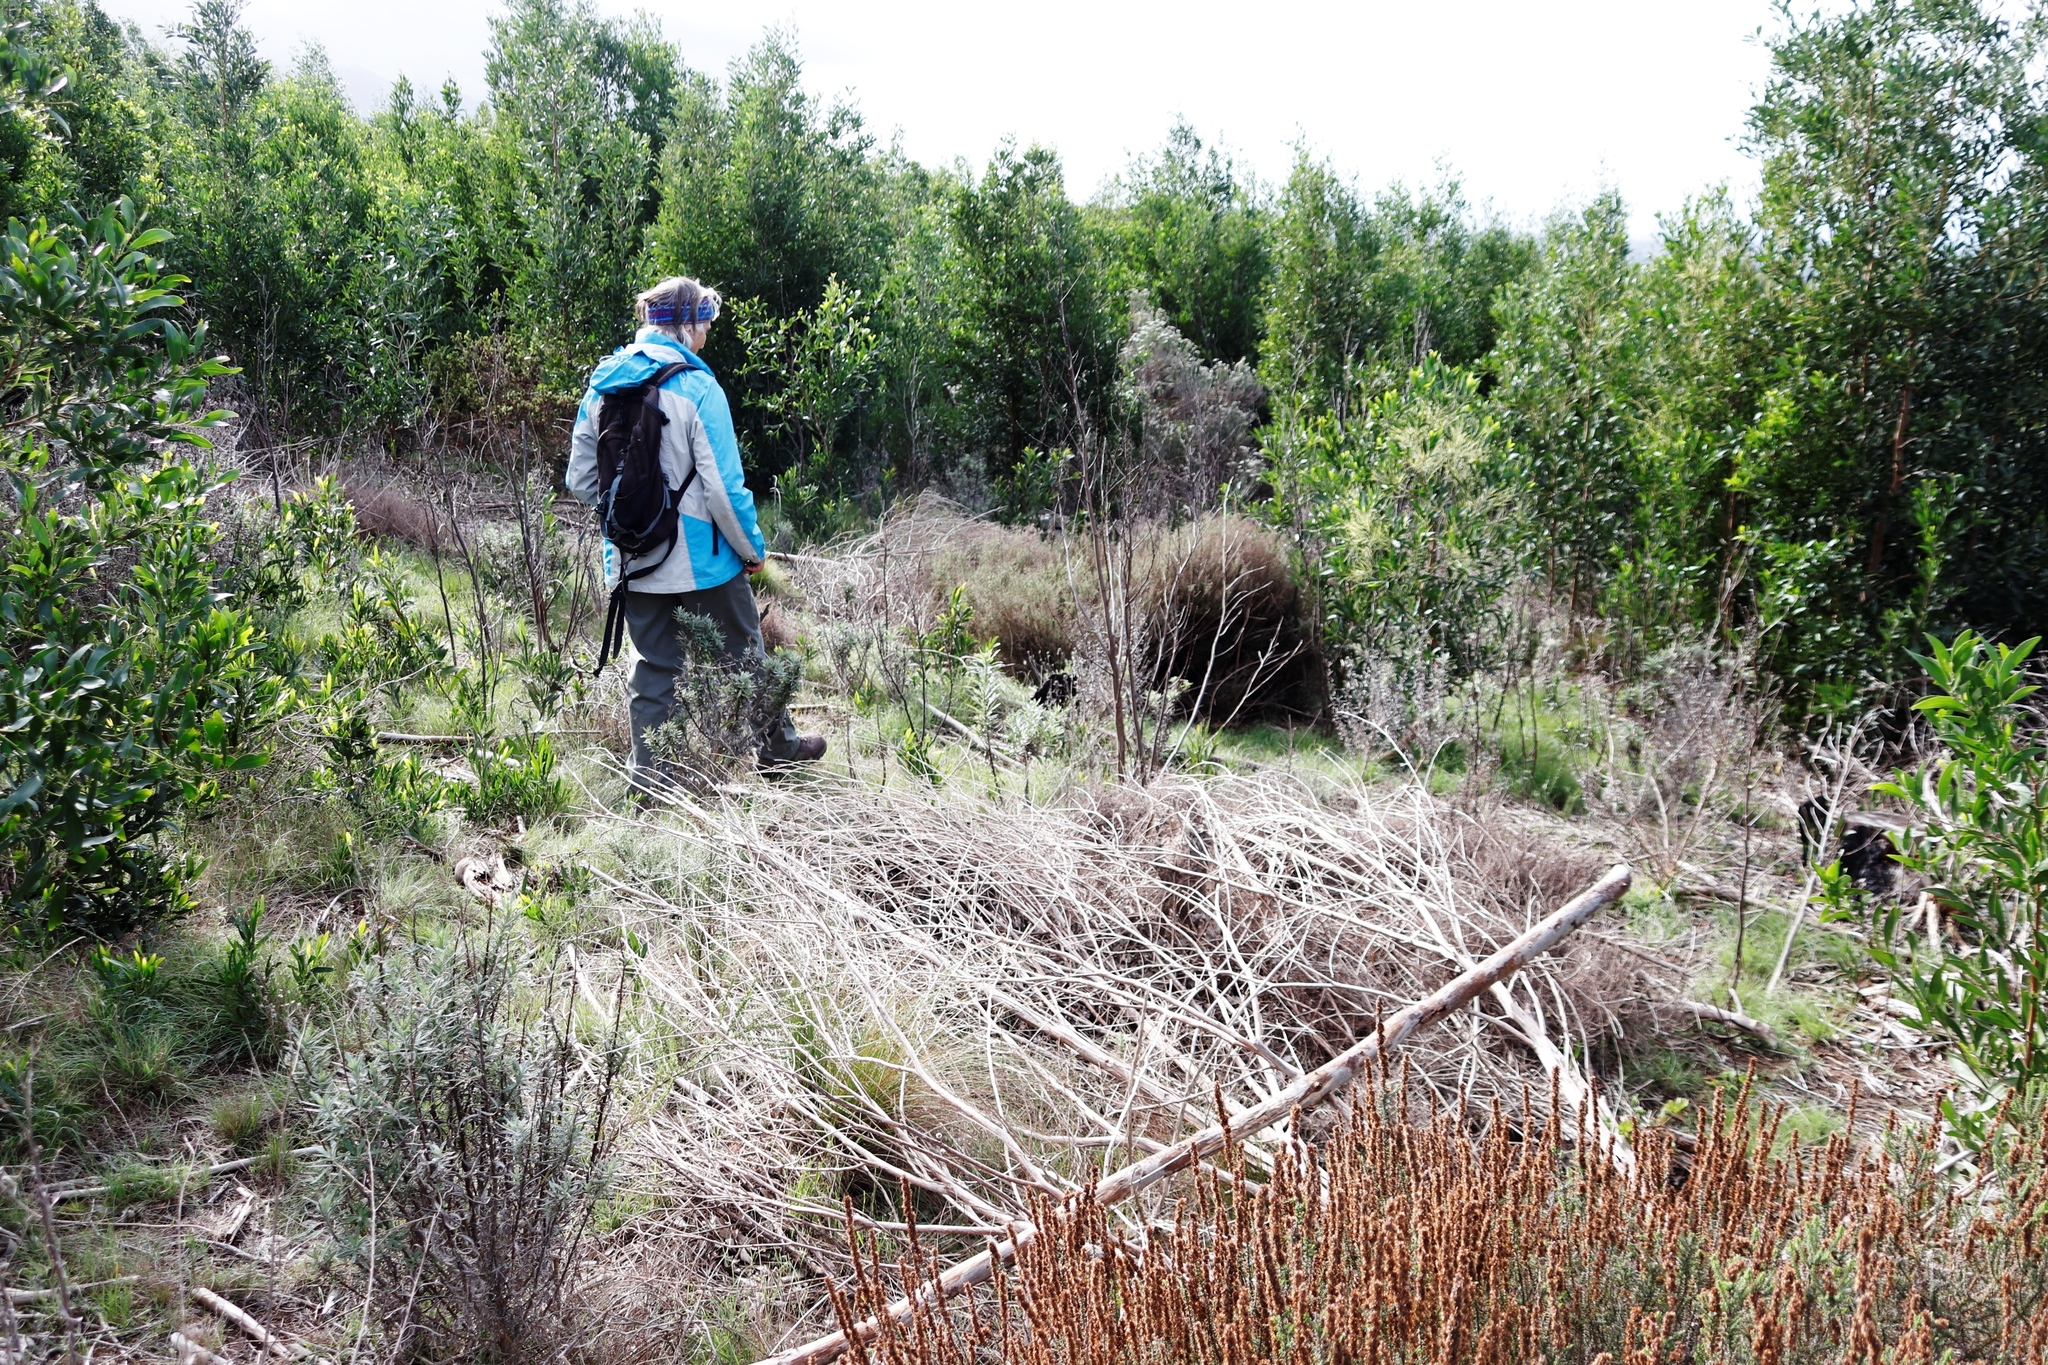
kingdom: Plantae
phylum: Tracheophyta
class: Magnoliopsida
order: Fabales
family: Fabaceae
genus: Acacia
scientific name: Acacia melanoxylon
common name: Blackwood
